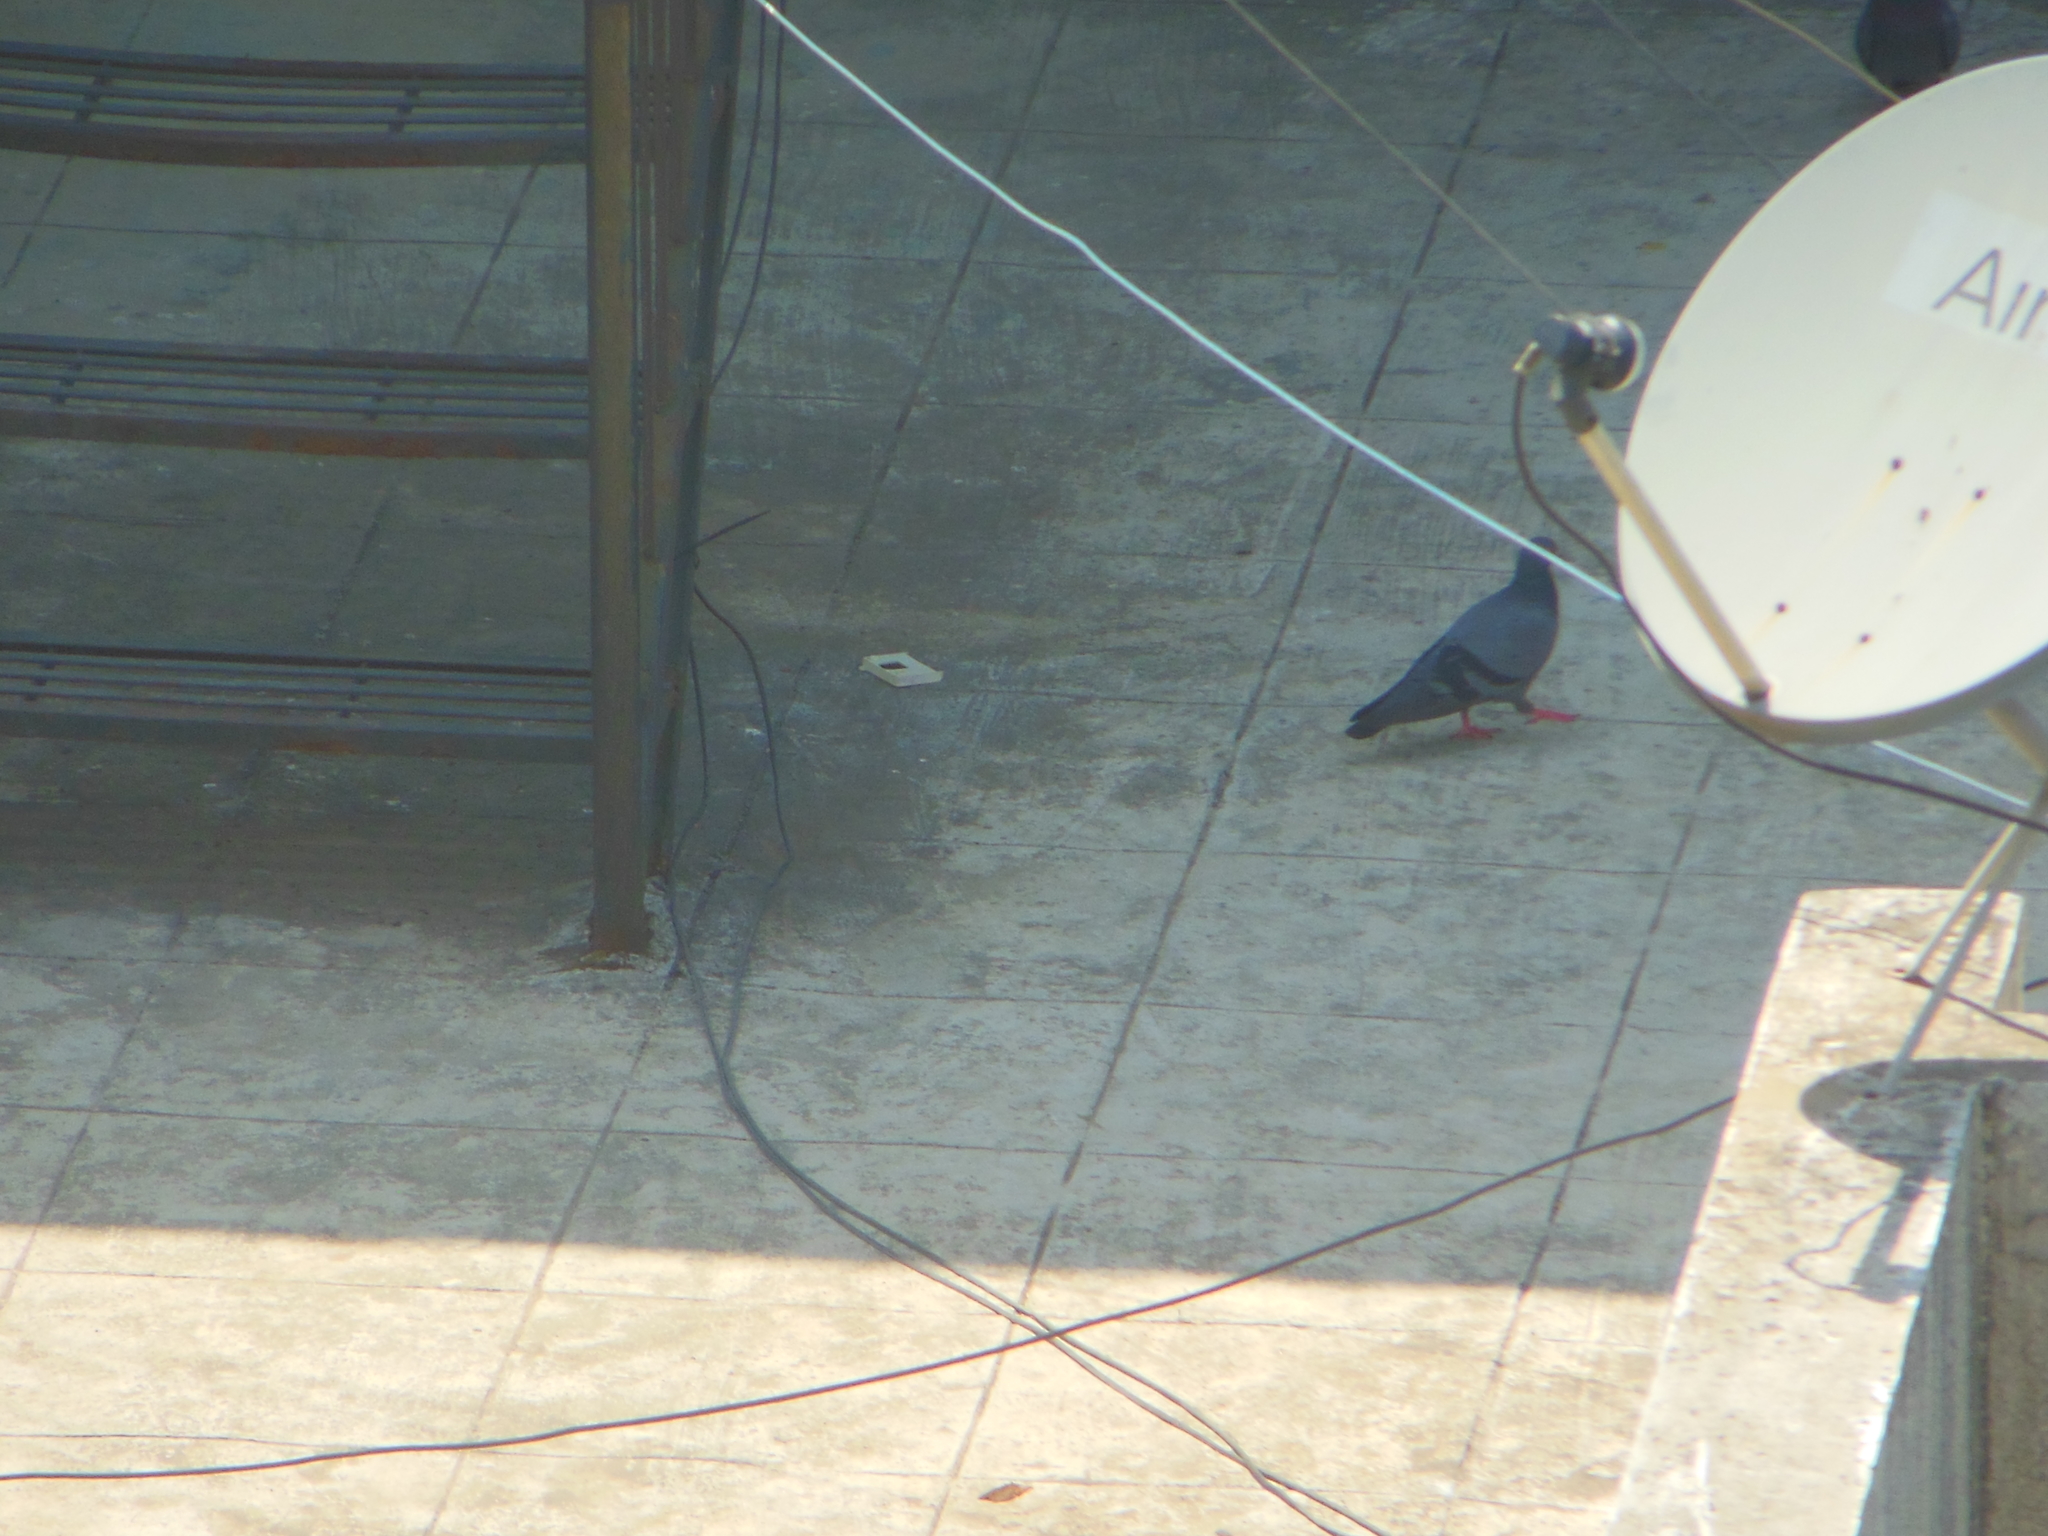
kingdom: Animalia
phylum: Chordata
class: Aves
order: Columbiformes
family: Columbidae
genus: Columba
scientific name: Columba livia
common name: Rock pigeon
